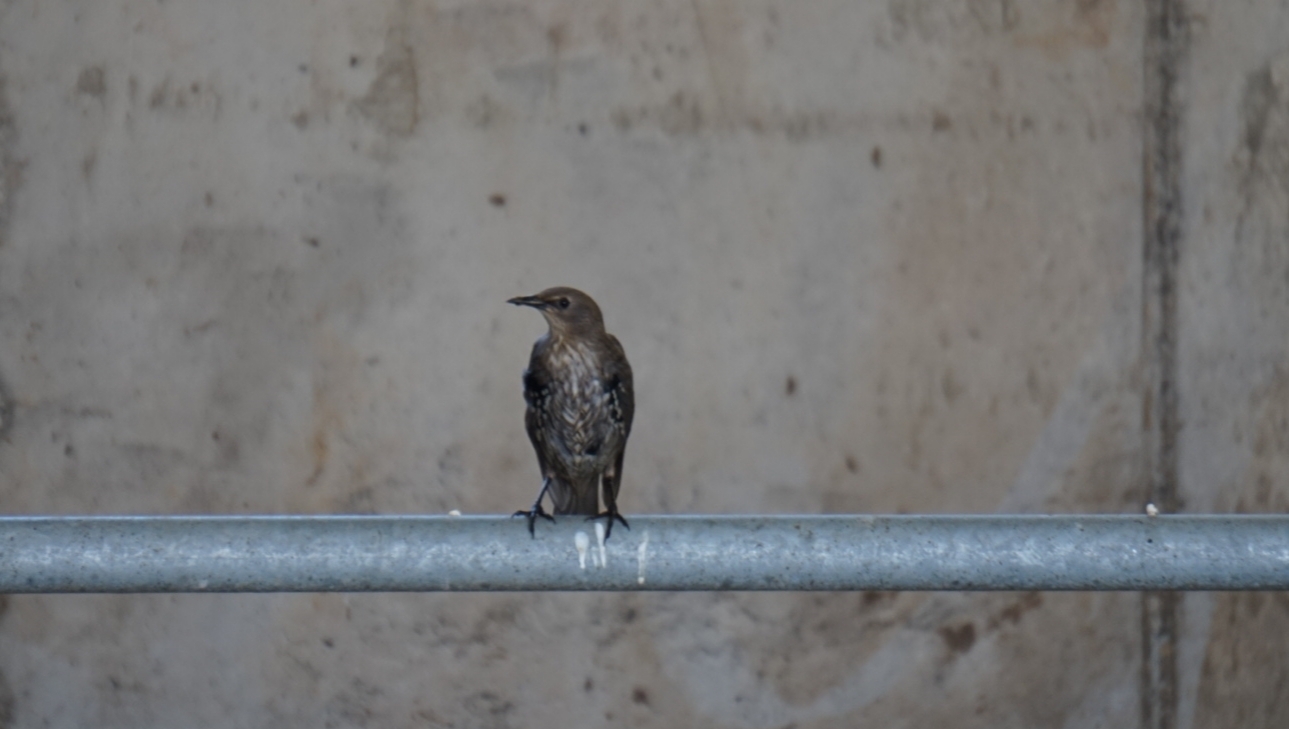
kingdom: Animalia
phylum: Chordata
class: Aves
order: Passeriformes
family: Sturnidae
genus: Sturnus
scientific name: Sturnus vulgaris
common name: Common starling
